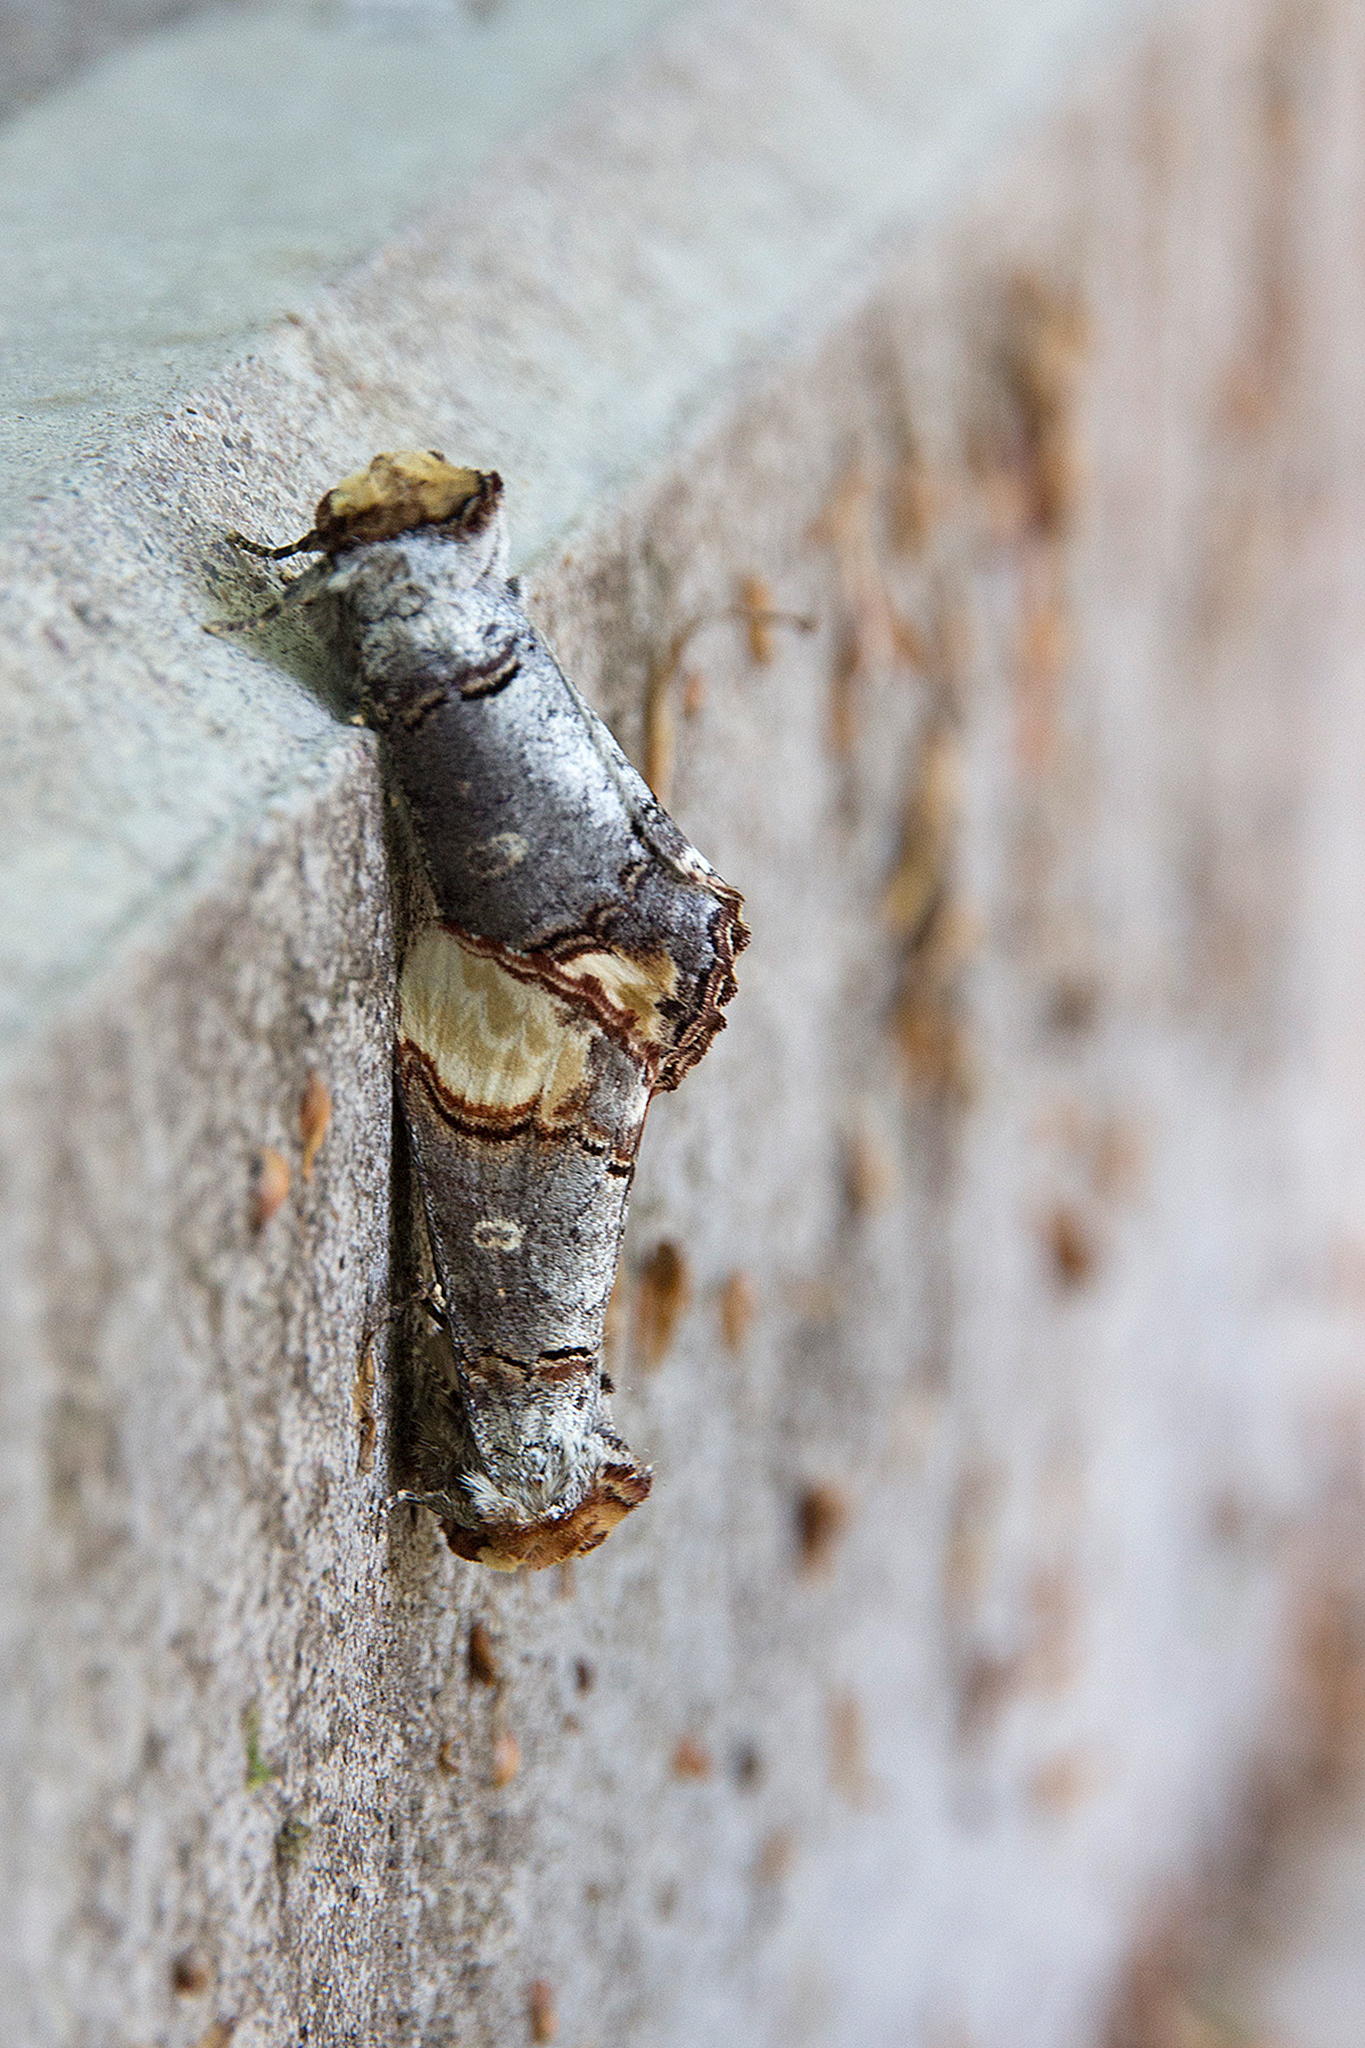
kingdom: Animalia
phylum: Arthropoda
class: Insecta
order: Lepidoptera
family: Notodontidae
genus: Phalera
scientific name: Phalera bucephala
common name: Buff-tip
